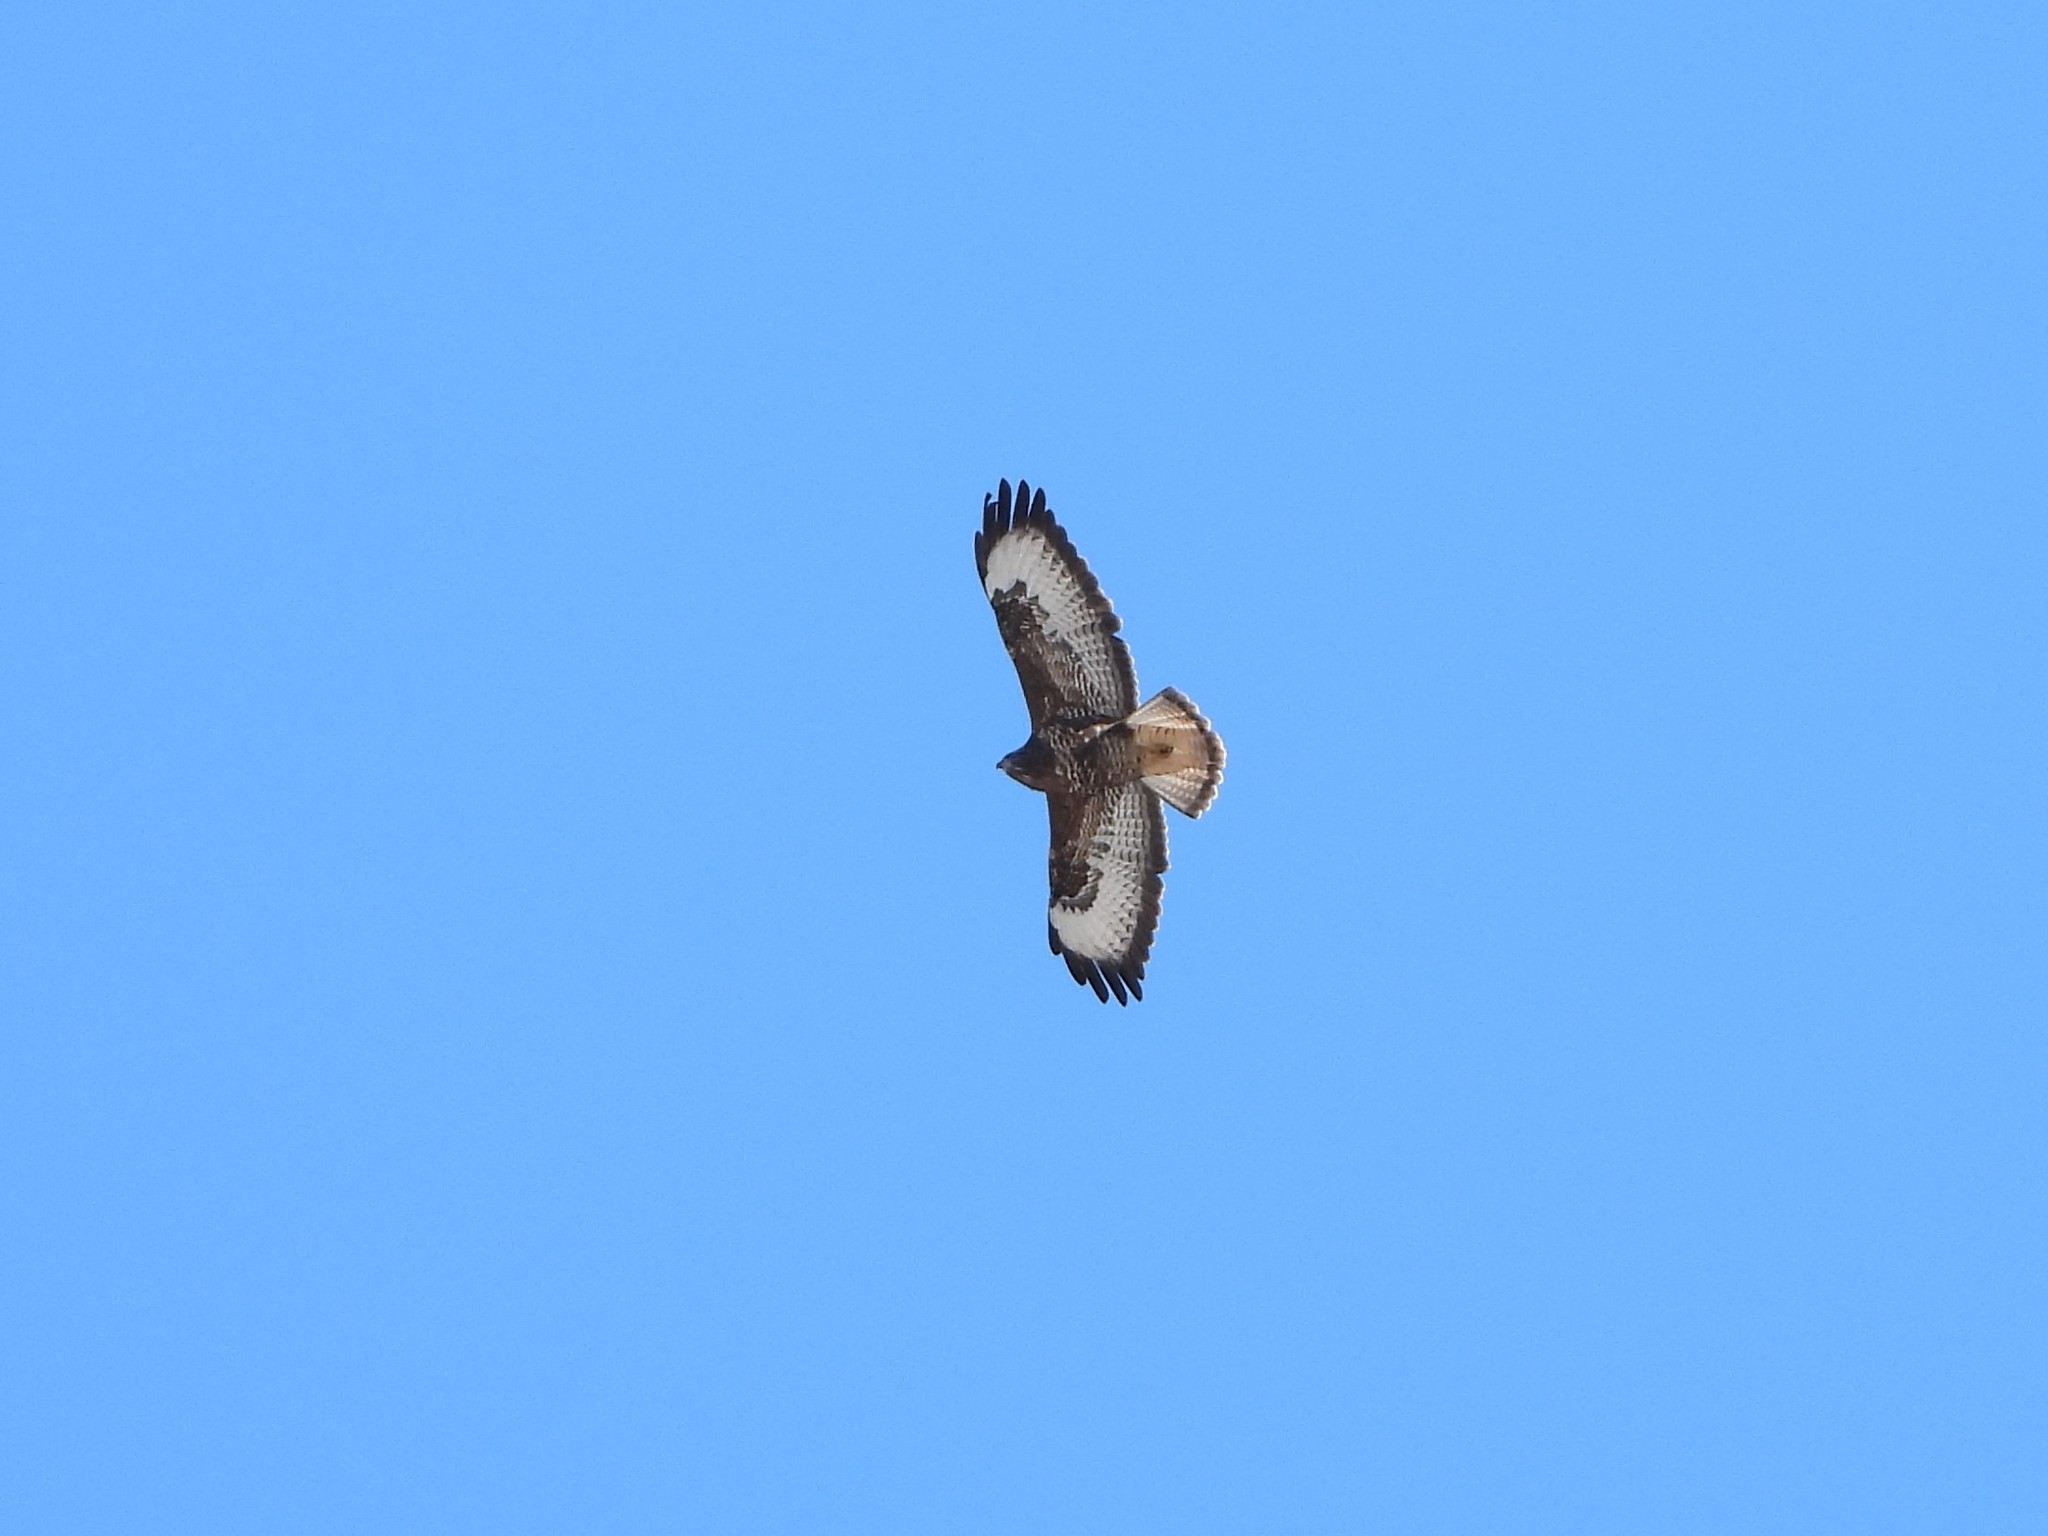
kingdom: Animalia
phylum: Chordata
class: Aves
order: Accipitriformes
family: Accipitridae
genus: Buteo
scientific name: Buteo buteo
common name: Common buzzard
